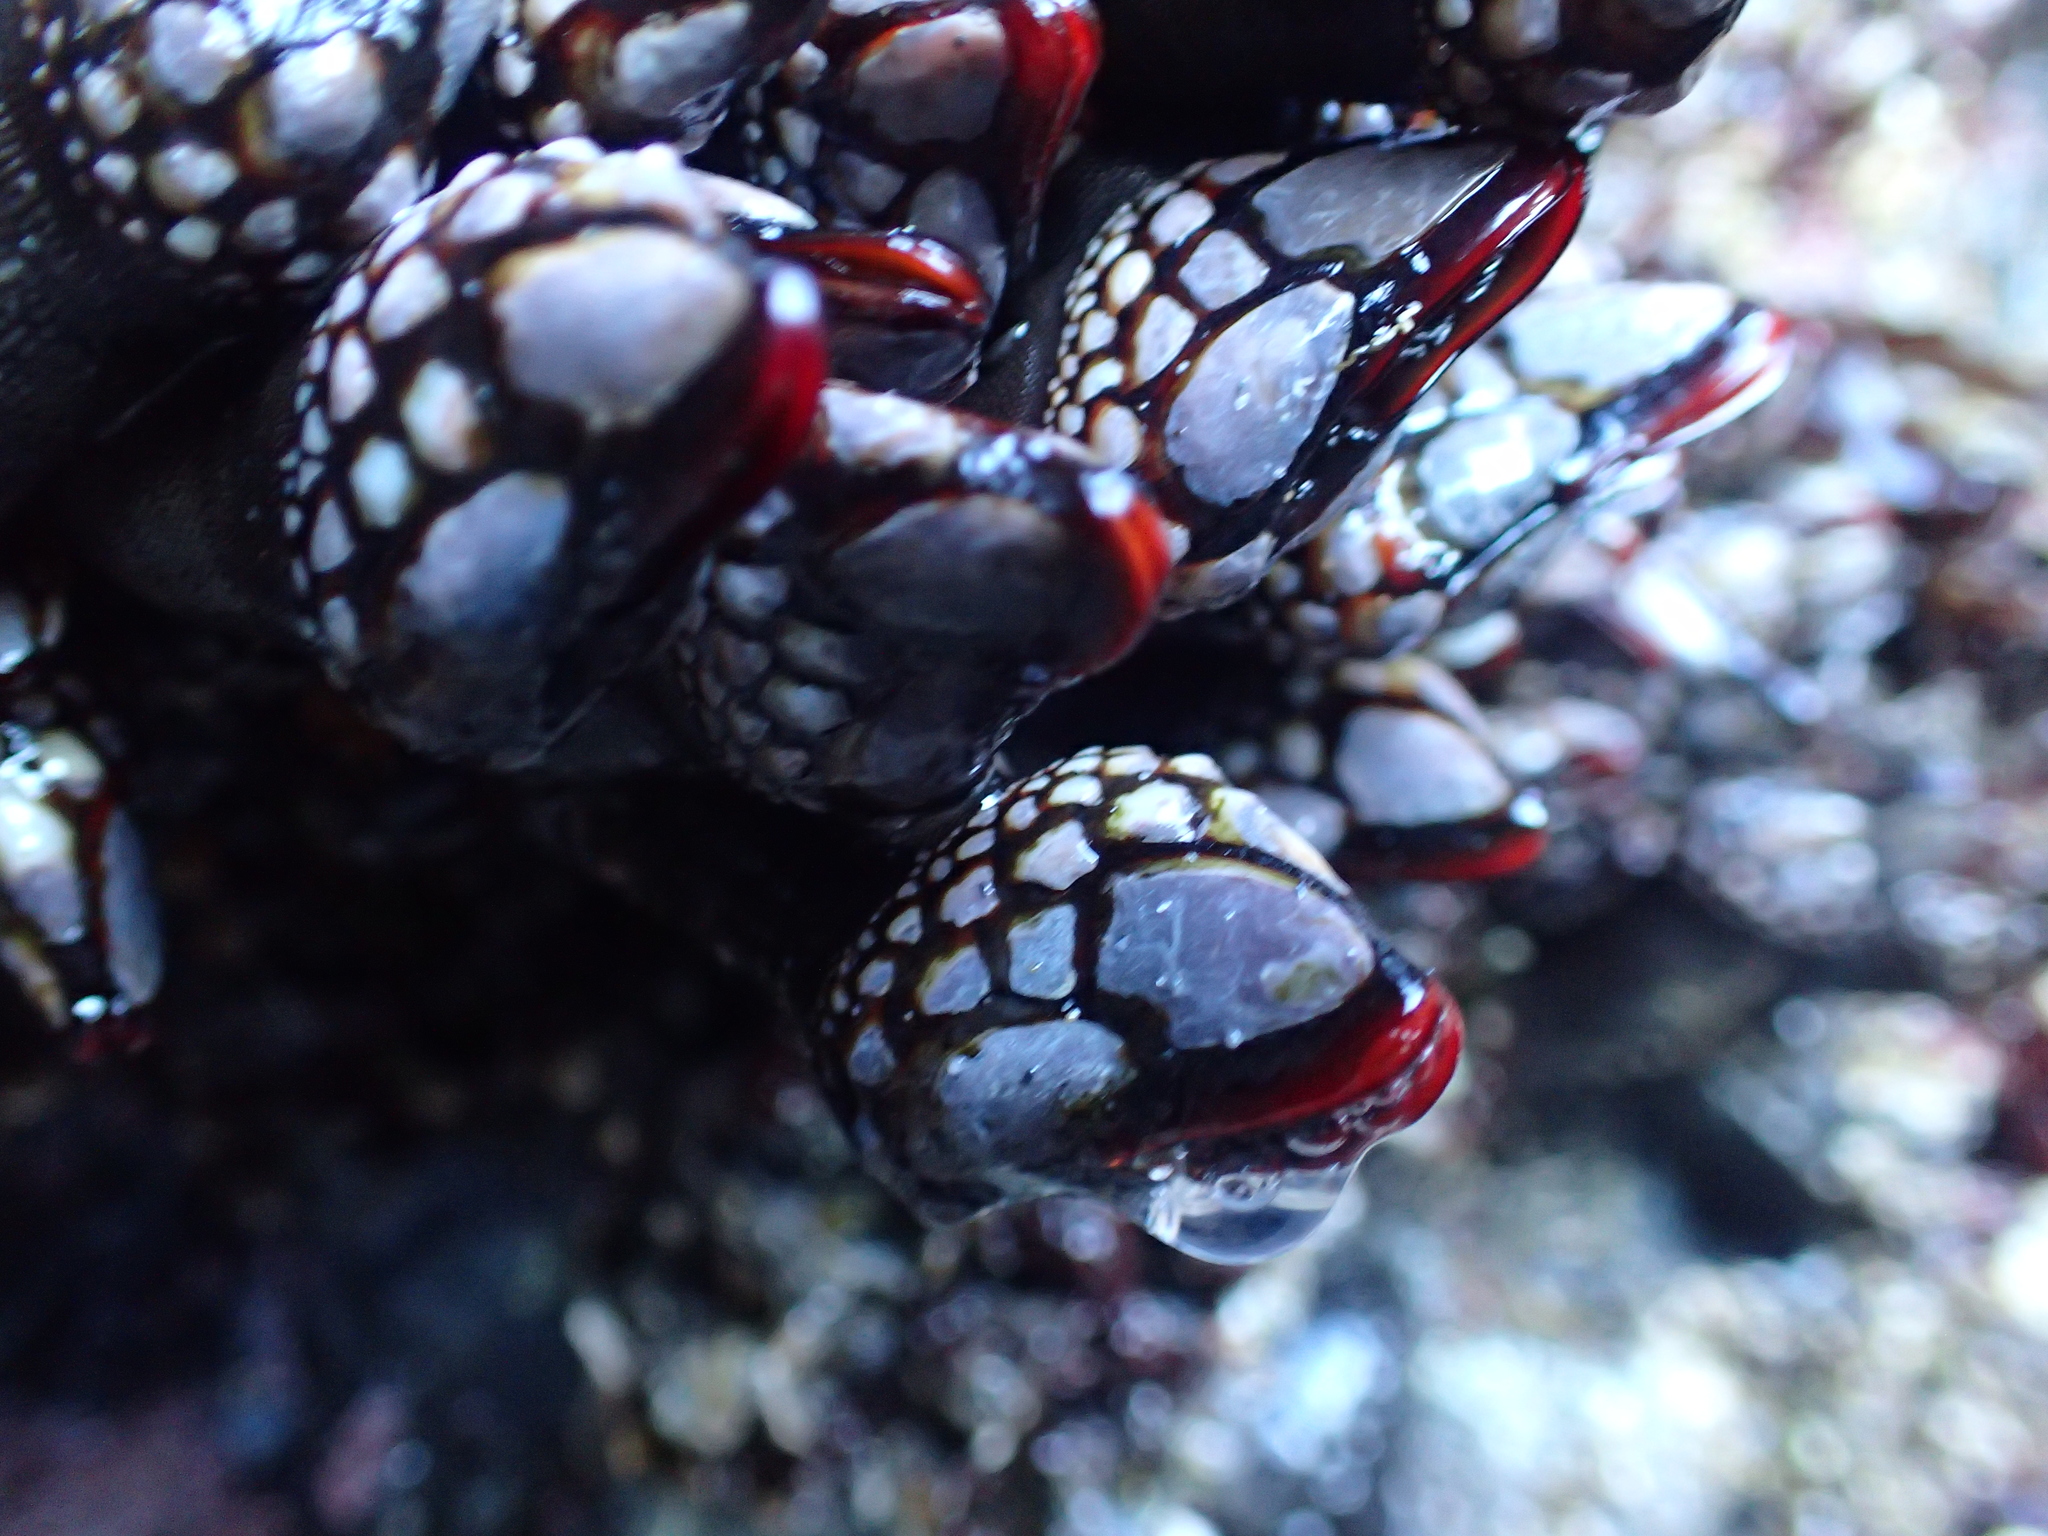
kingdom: Animalia
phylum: Arthropoda
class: Maxillopoda
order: Pedunculata
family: Pollicipedidae
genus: Pollicipes
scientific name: Pollicipes polymerus
